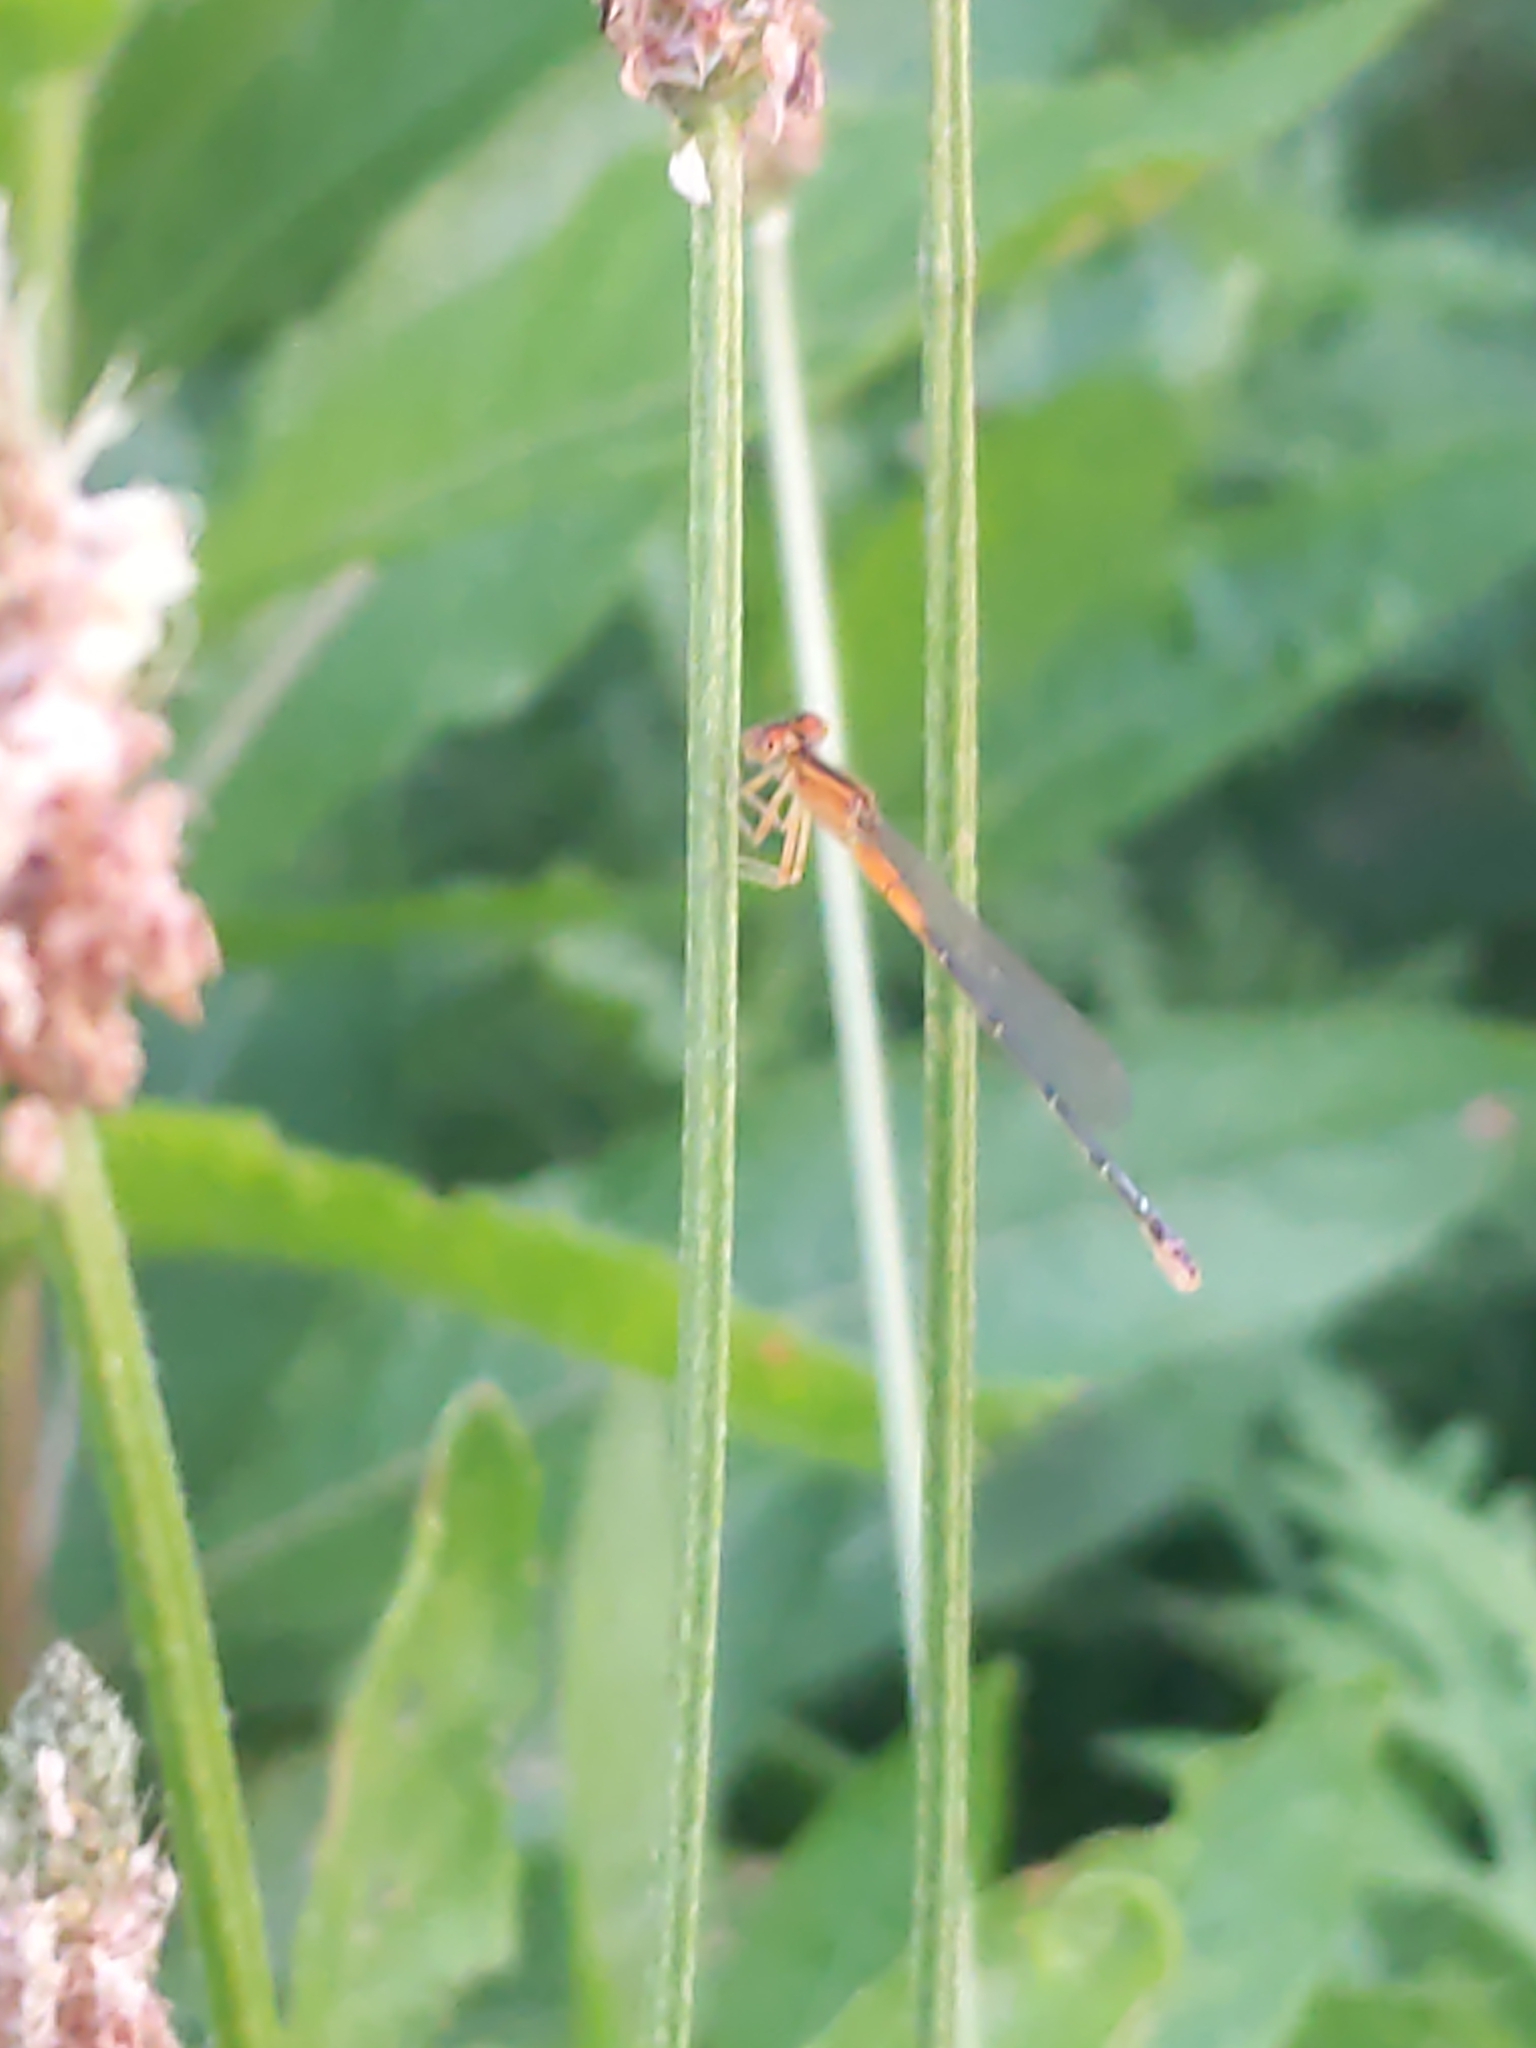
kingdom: Animalia
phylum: Arthropoda
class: Insecta
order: Odonata
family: Coenagrionidae
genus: Ischnura
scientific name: Ischnura verticalis
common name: Eastern forktail
